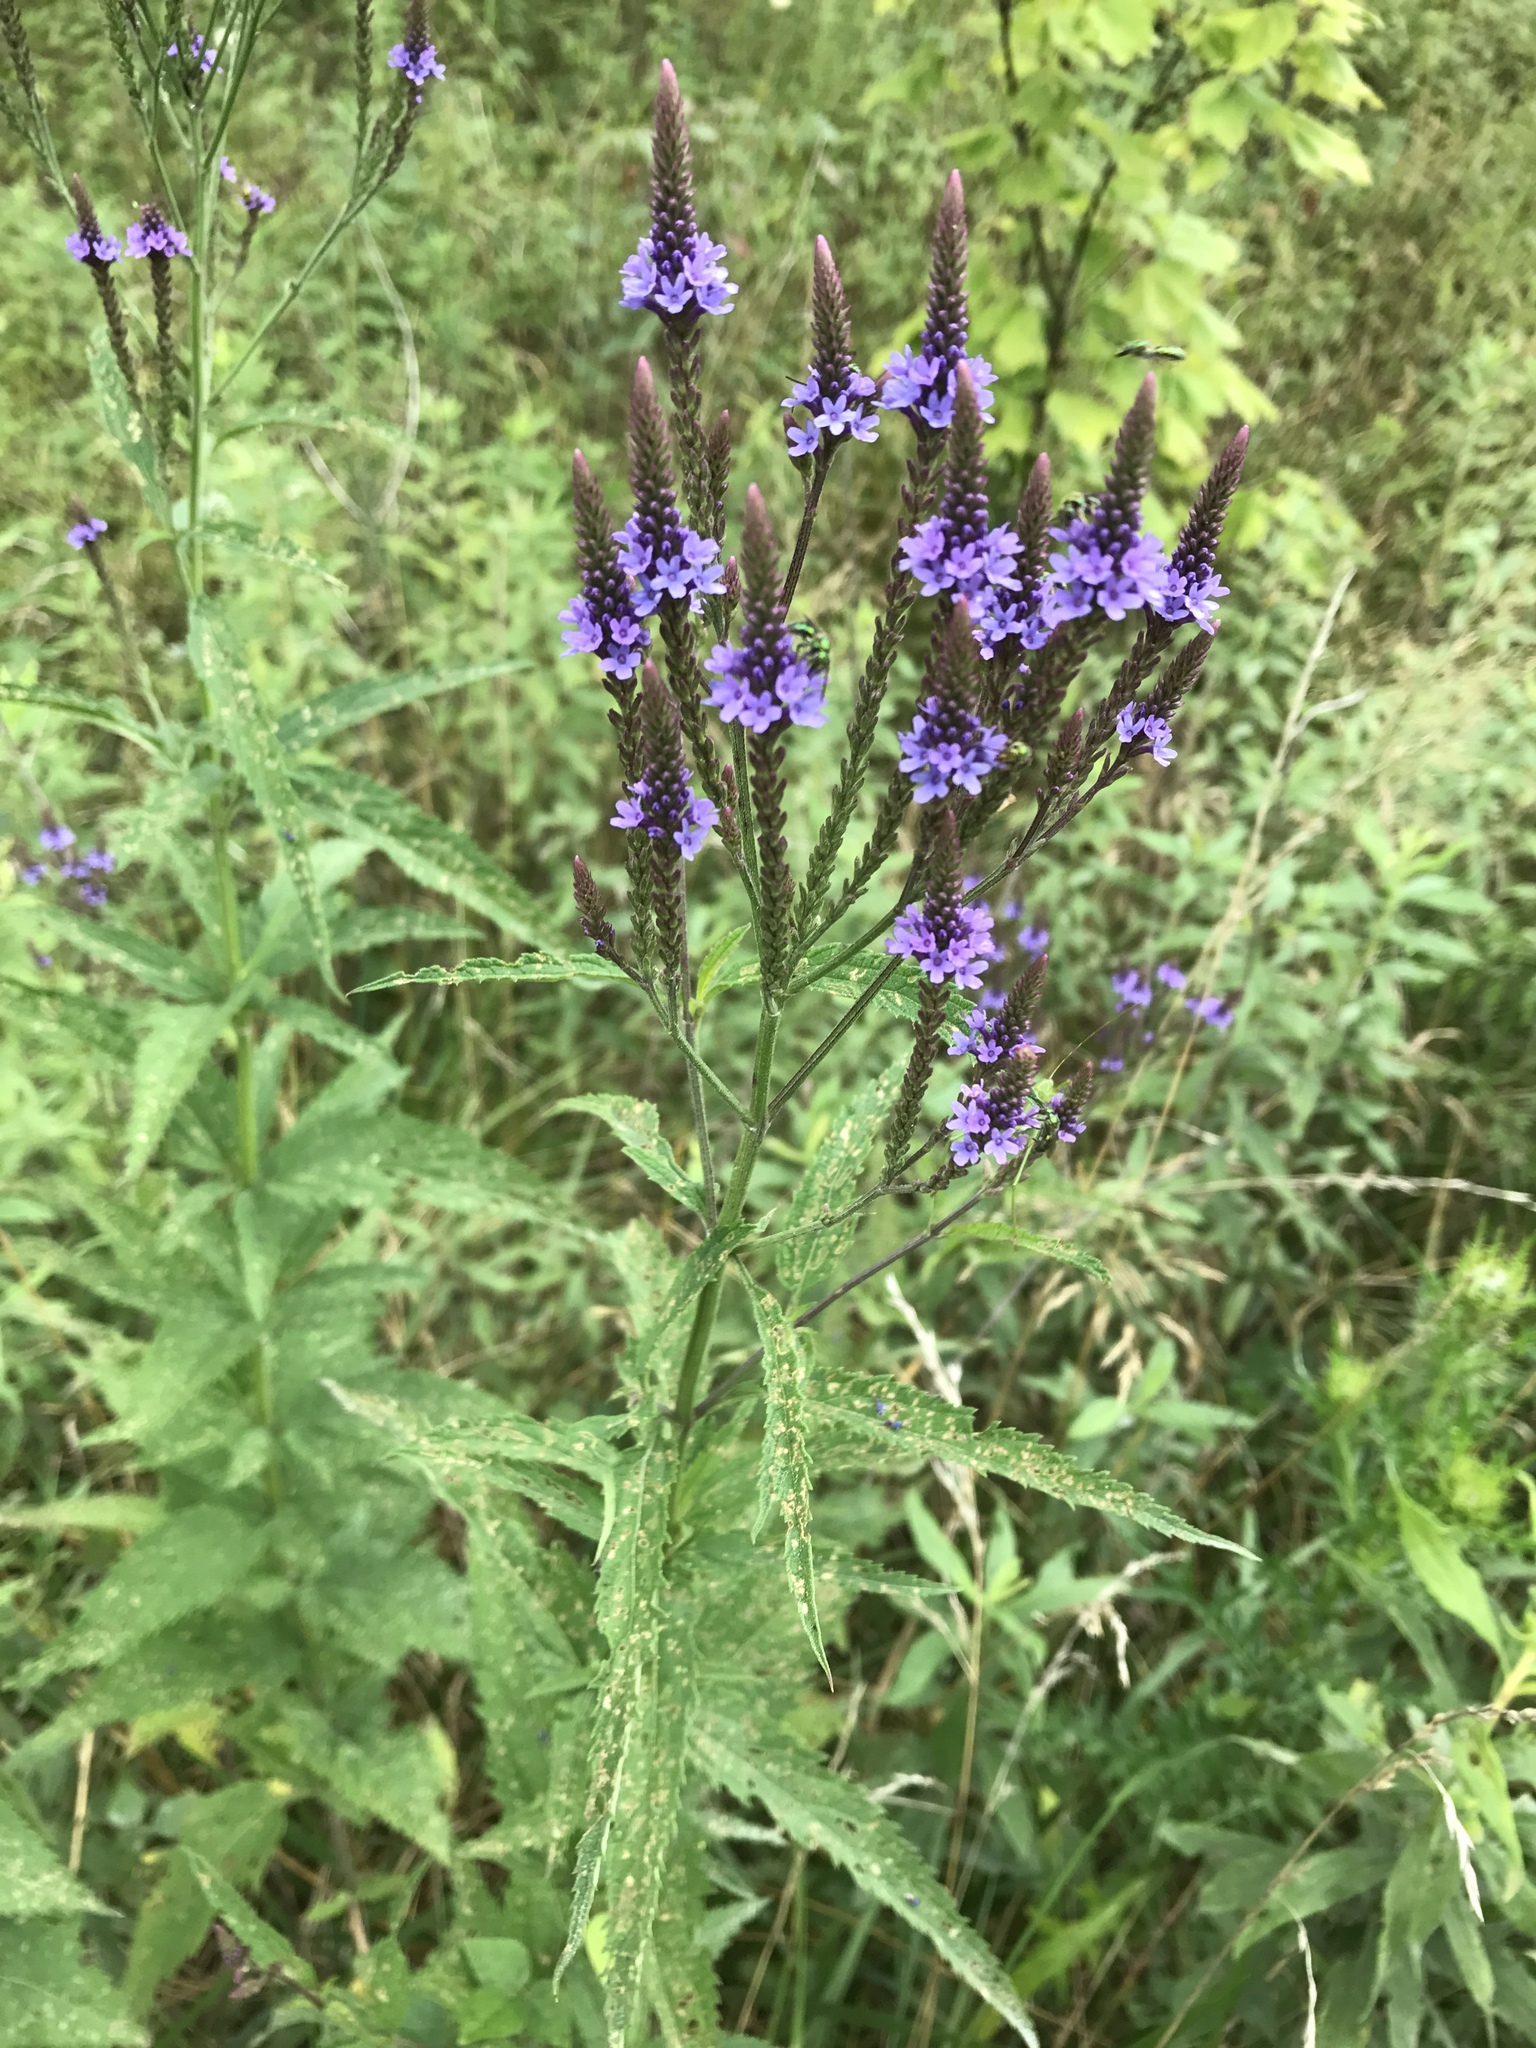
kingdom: Plantae
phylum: Tracheophyta
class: Magnoliopsida
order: Lamiales
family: Verbenaceae
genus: Verbena
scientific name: Verbena hastata
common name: American blue vervain
